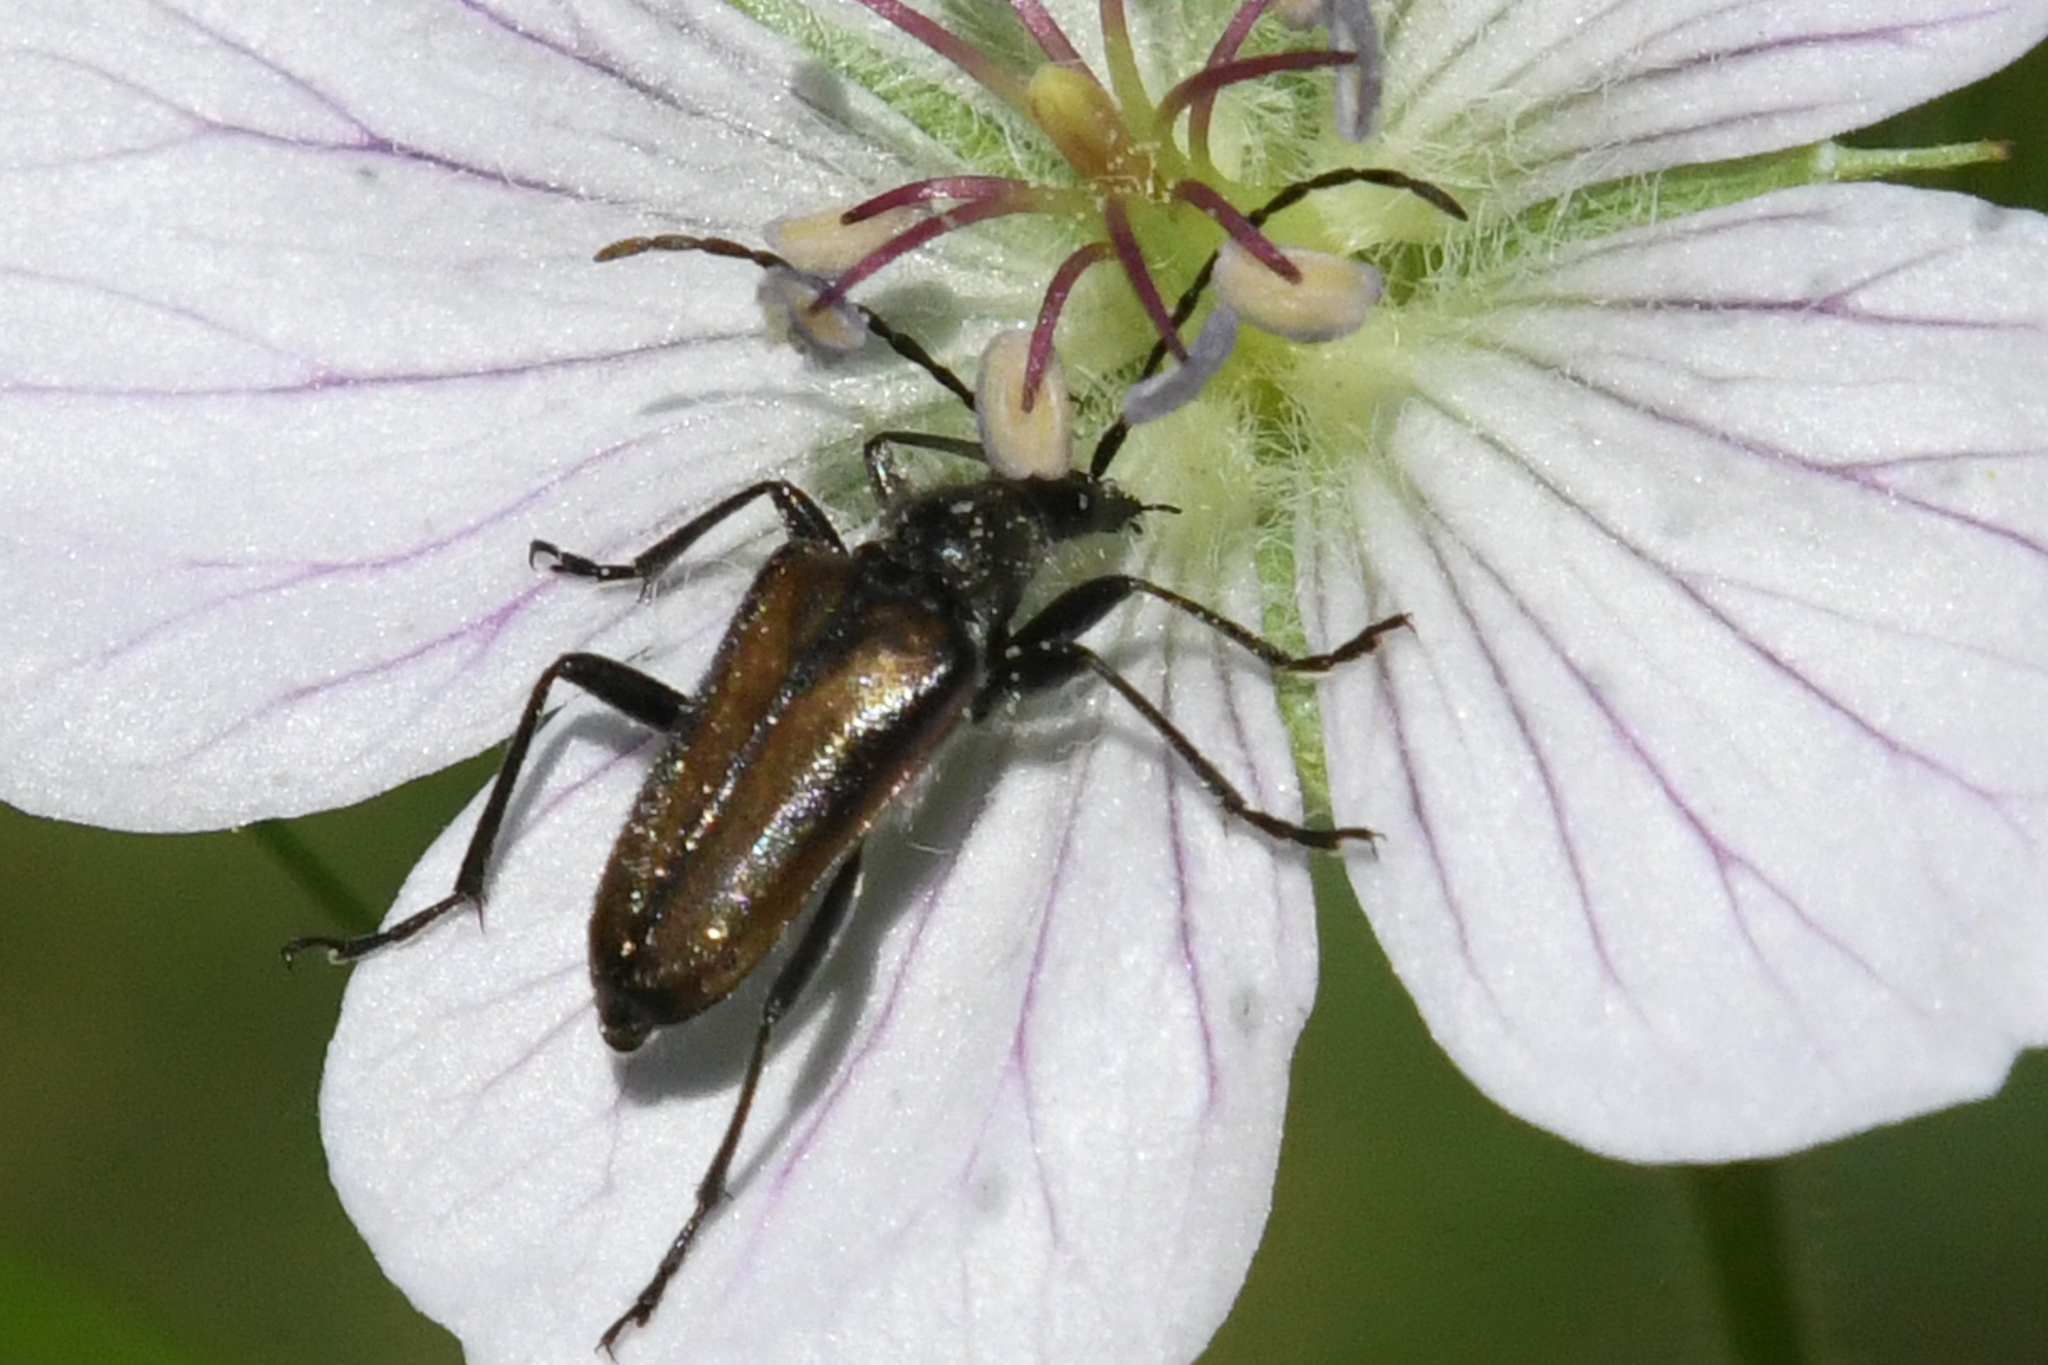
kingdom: Animalia
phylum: Arthropoda
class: Insecta
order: Coleoptera
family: Cerambycidae
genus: Gnathacmaeops
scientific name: Gnathacmaeops pratensis
